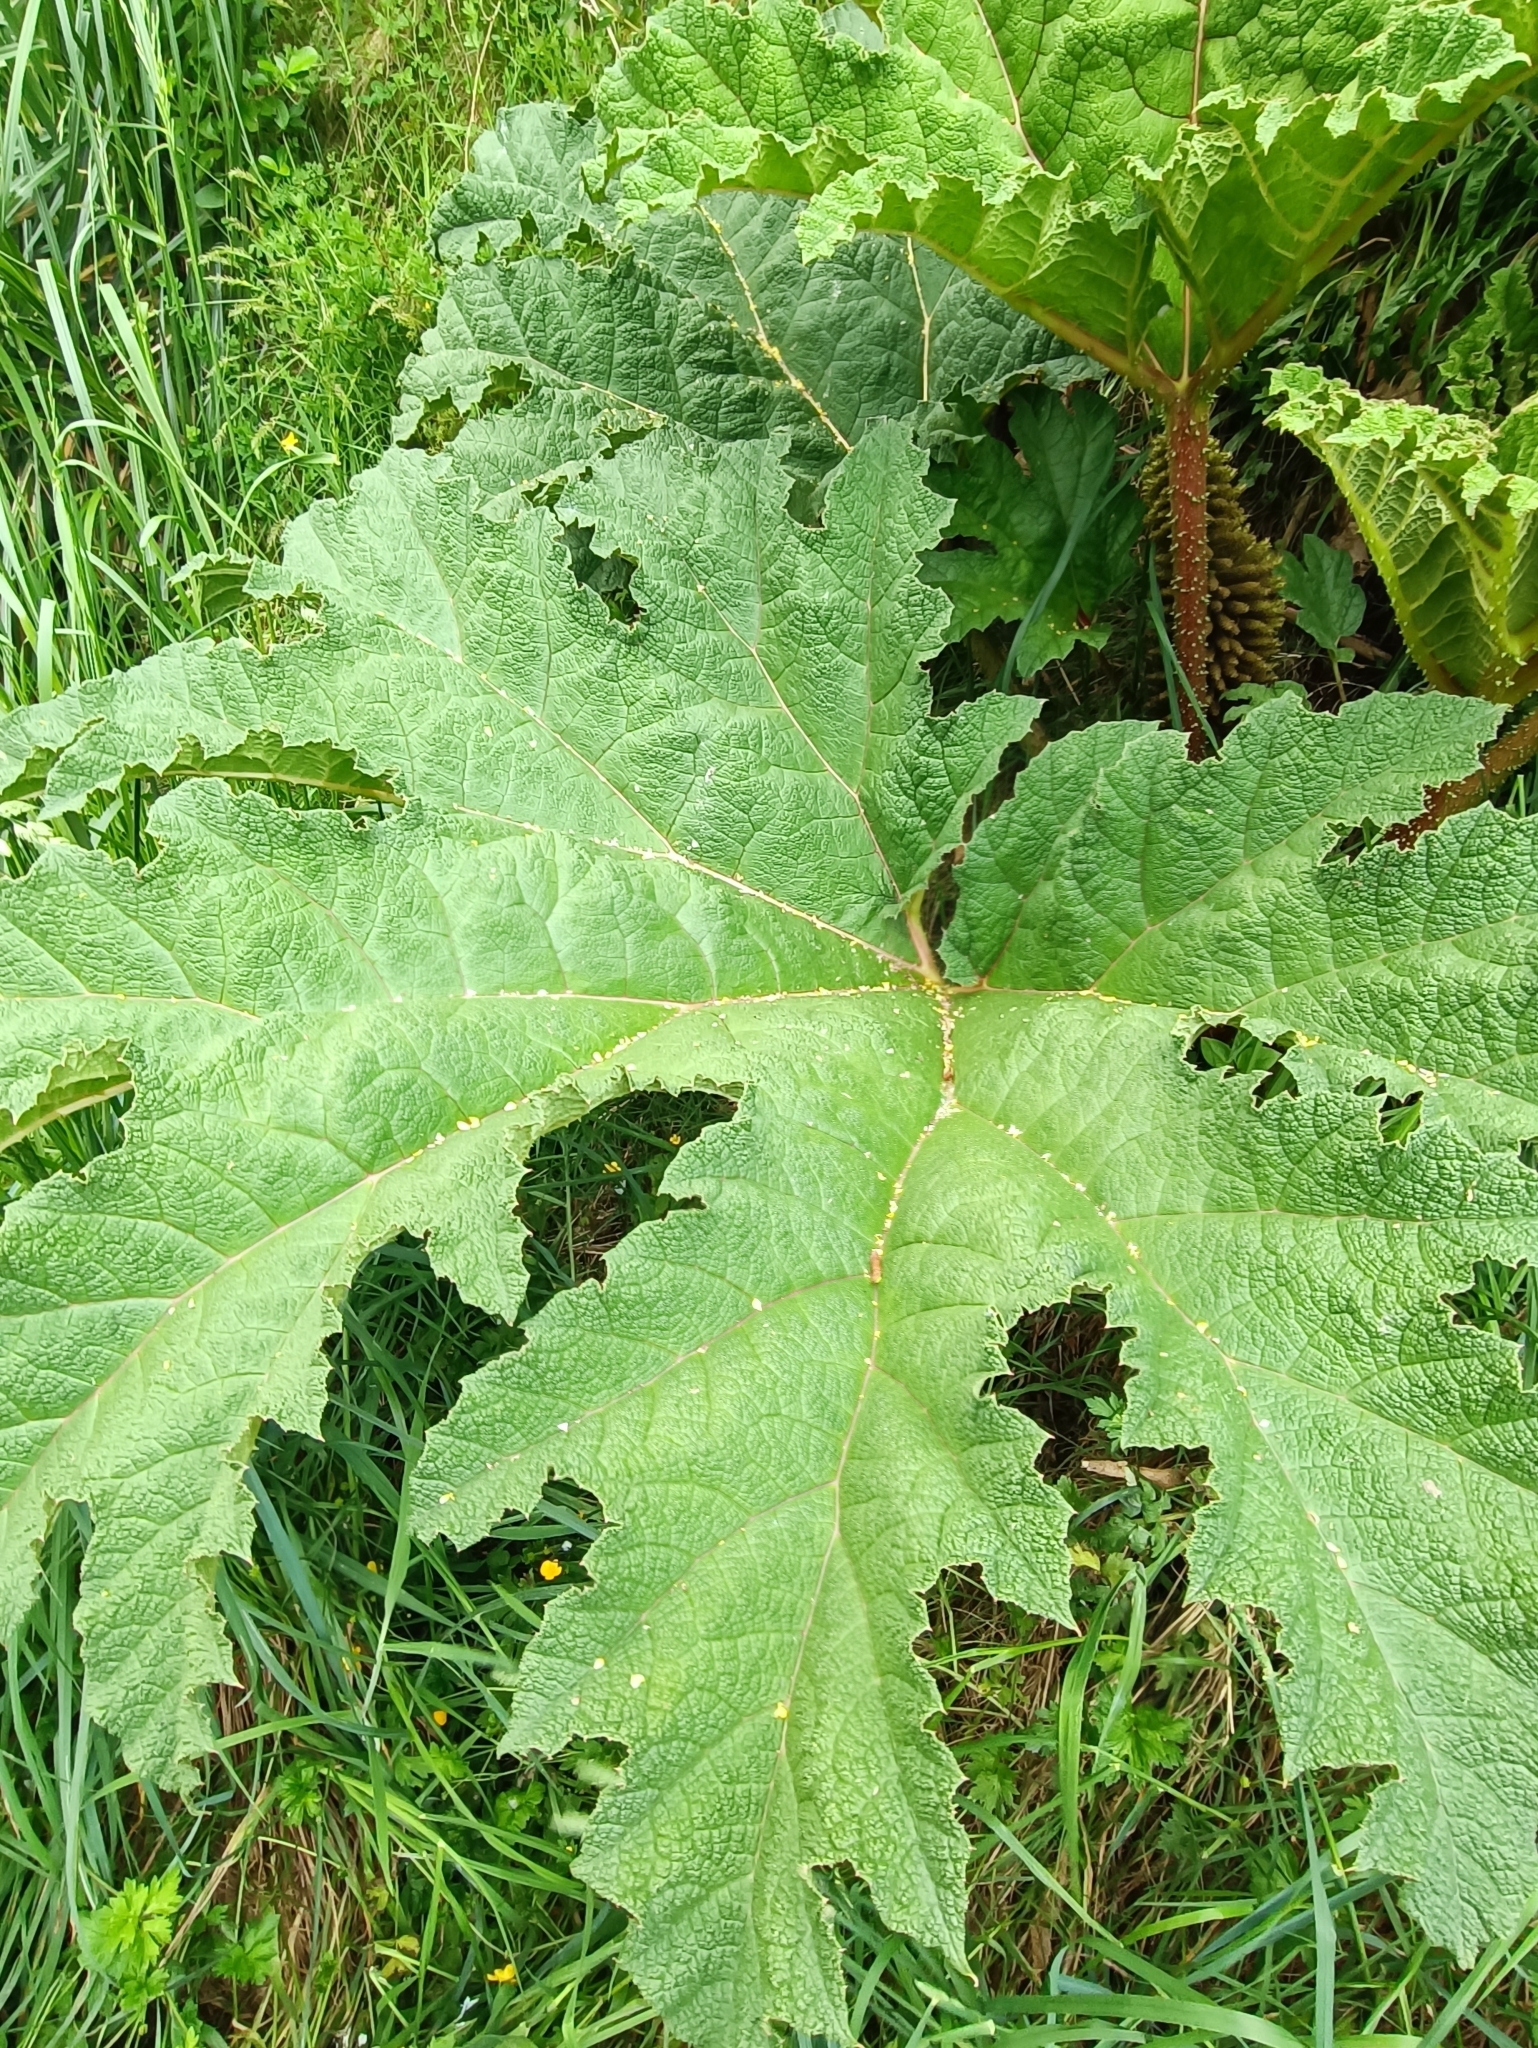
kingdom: Plantae
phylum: Tracheophyta
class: Magnoliopsida
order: Gunnerales
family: Gunneraceae
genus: Gunnera
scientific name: Gunnera tinctoria
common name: Giant-rhubarb
